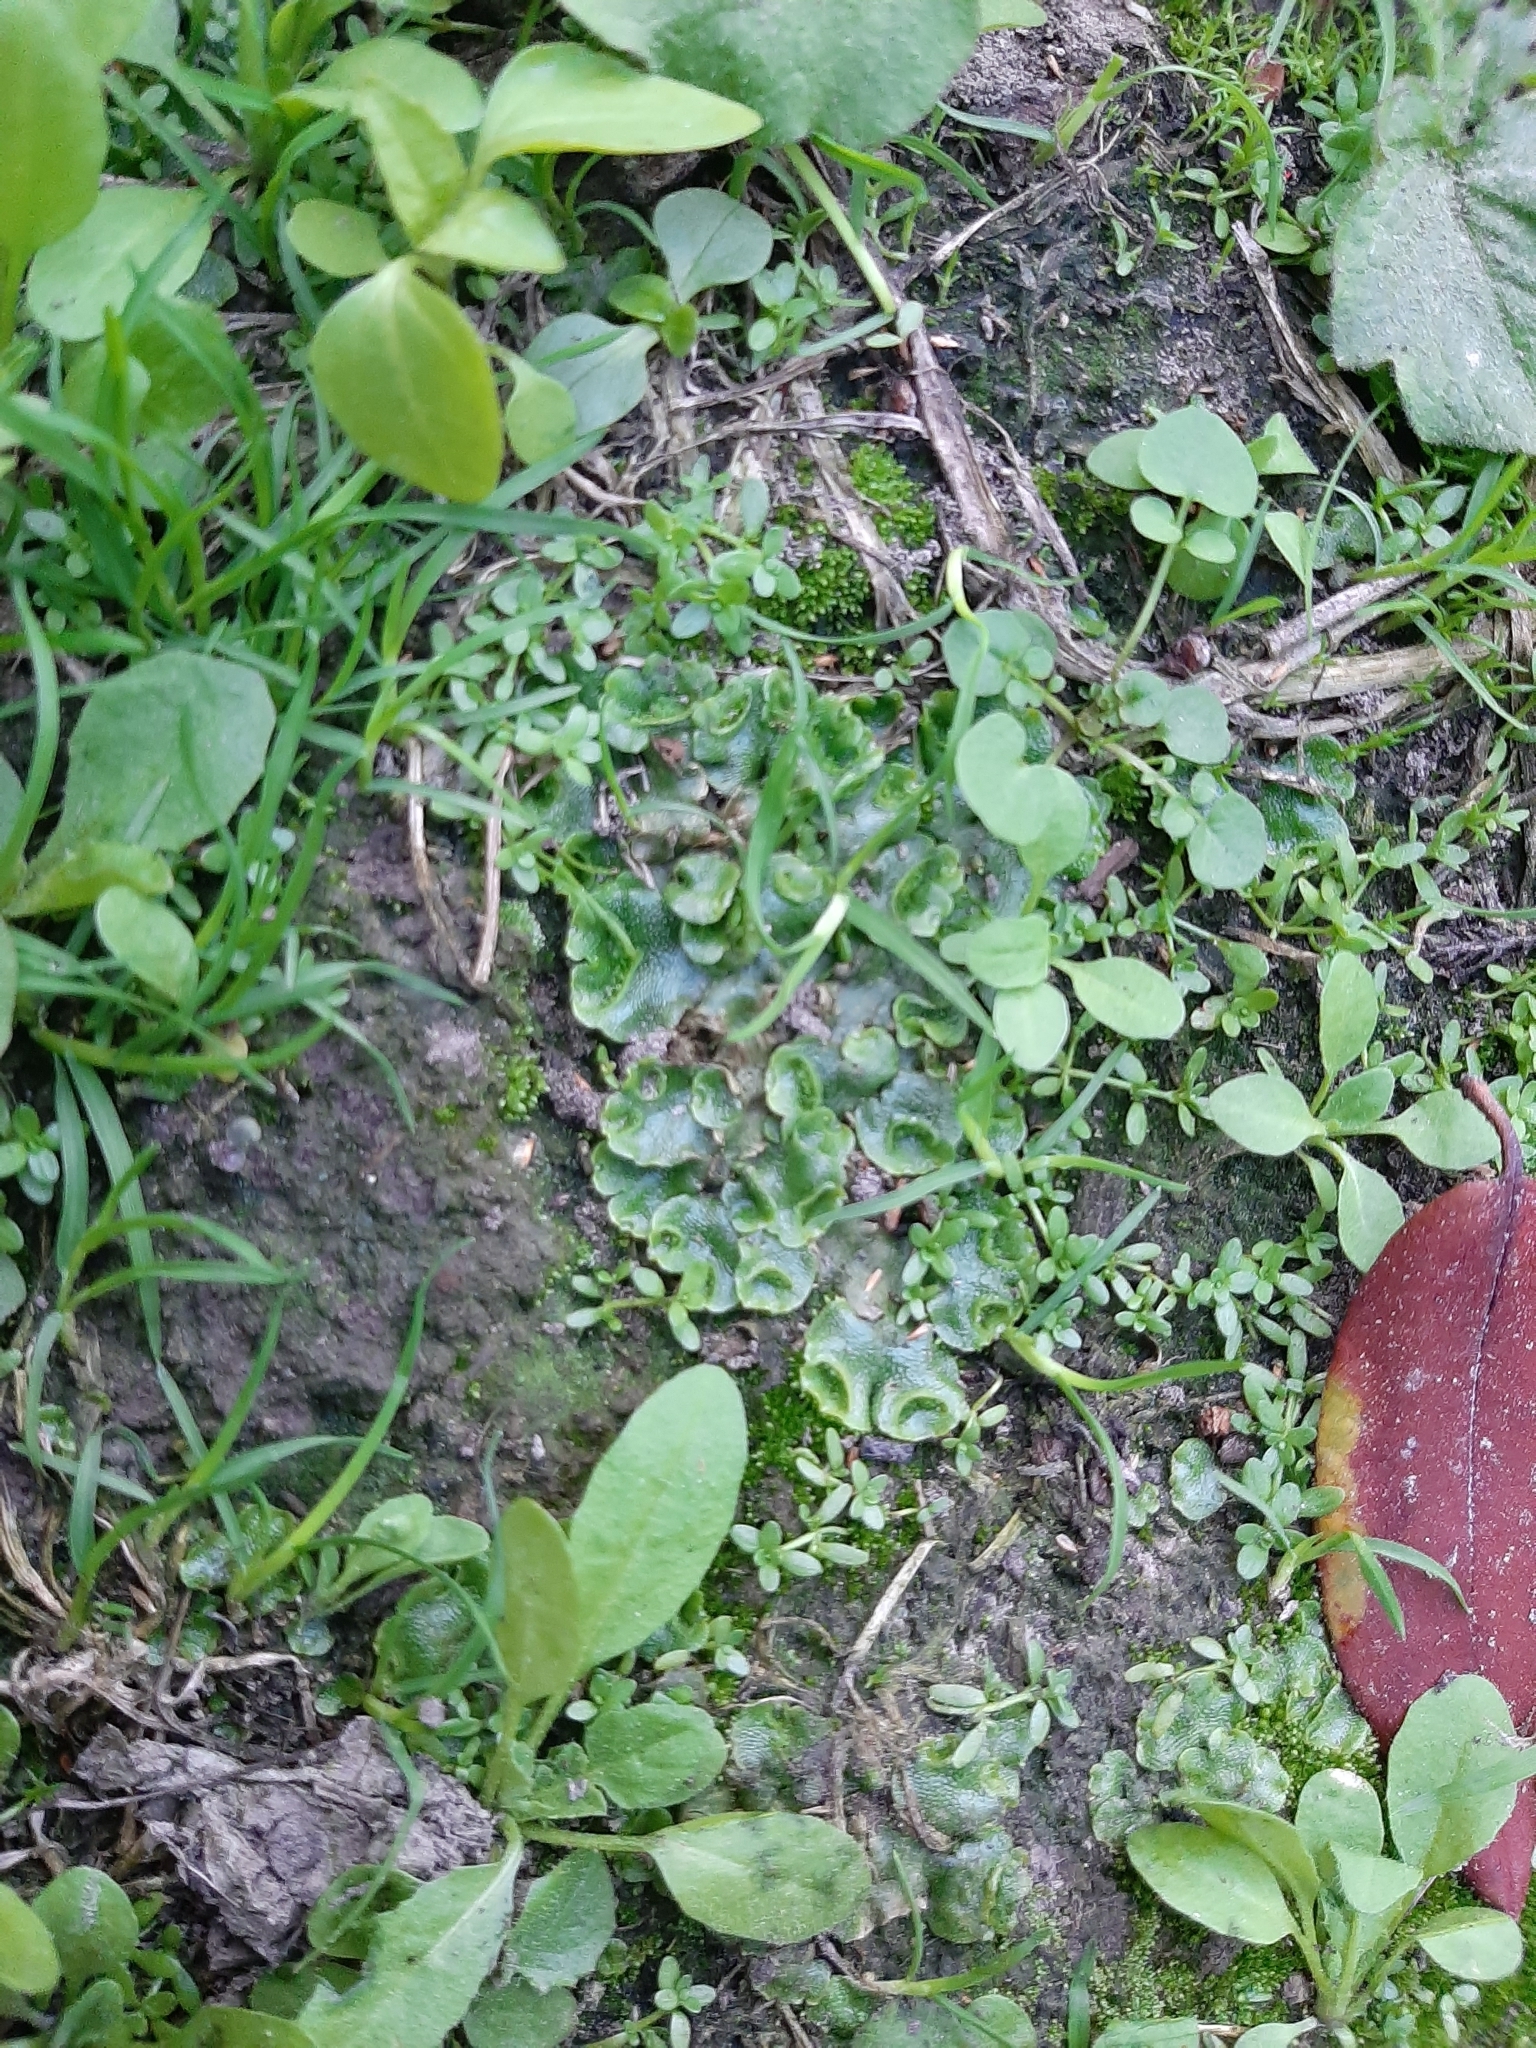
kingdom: Plantae
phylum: Marchantiophyta
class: Marchantiopsida
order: Lunulariales
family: Lunulariaceae
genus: Lunularia
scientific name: Lunularia cruciata
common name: Crescent-cup liverwort
